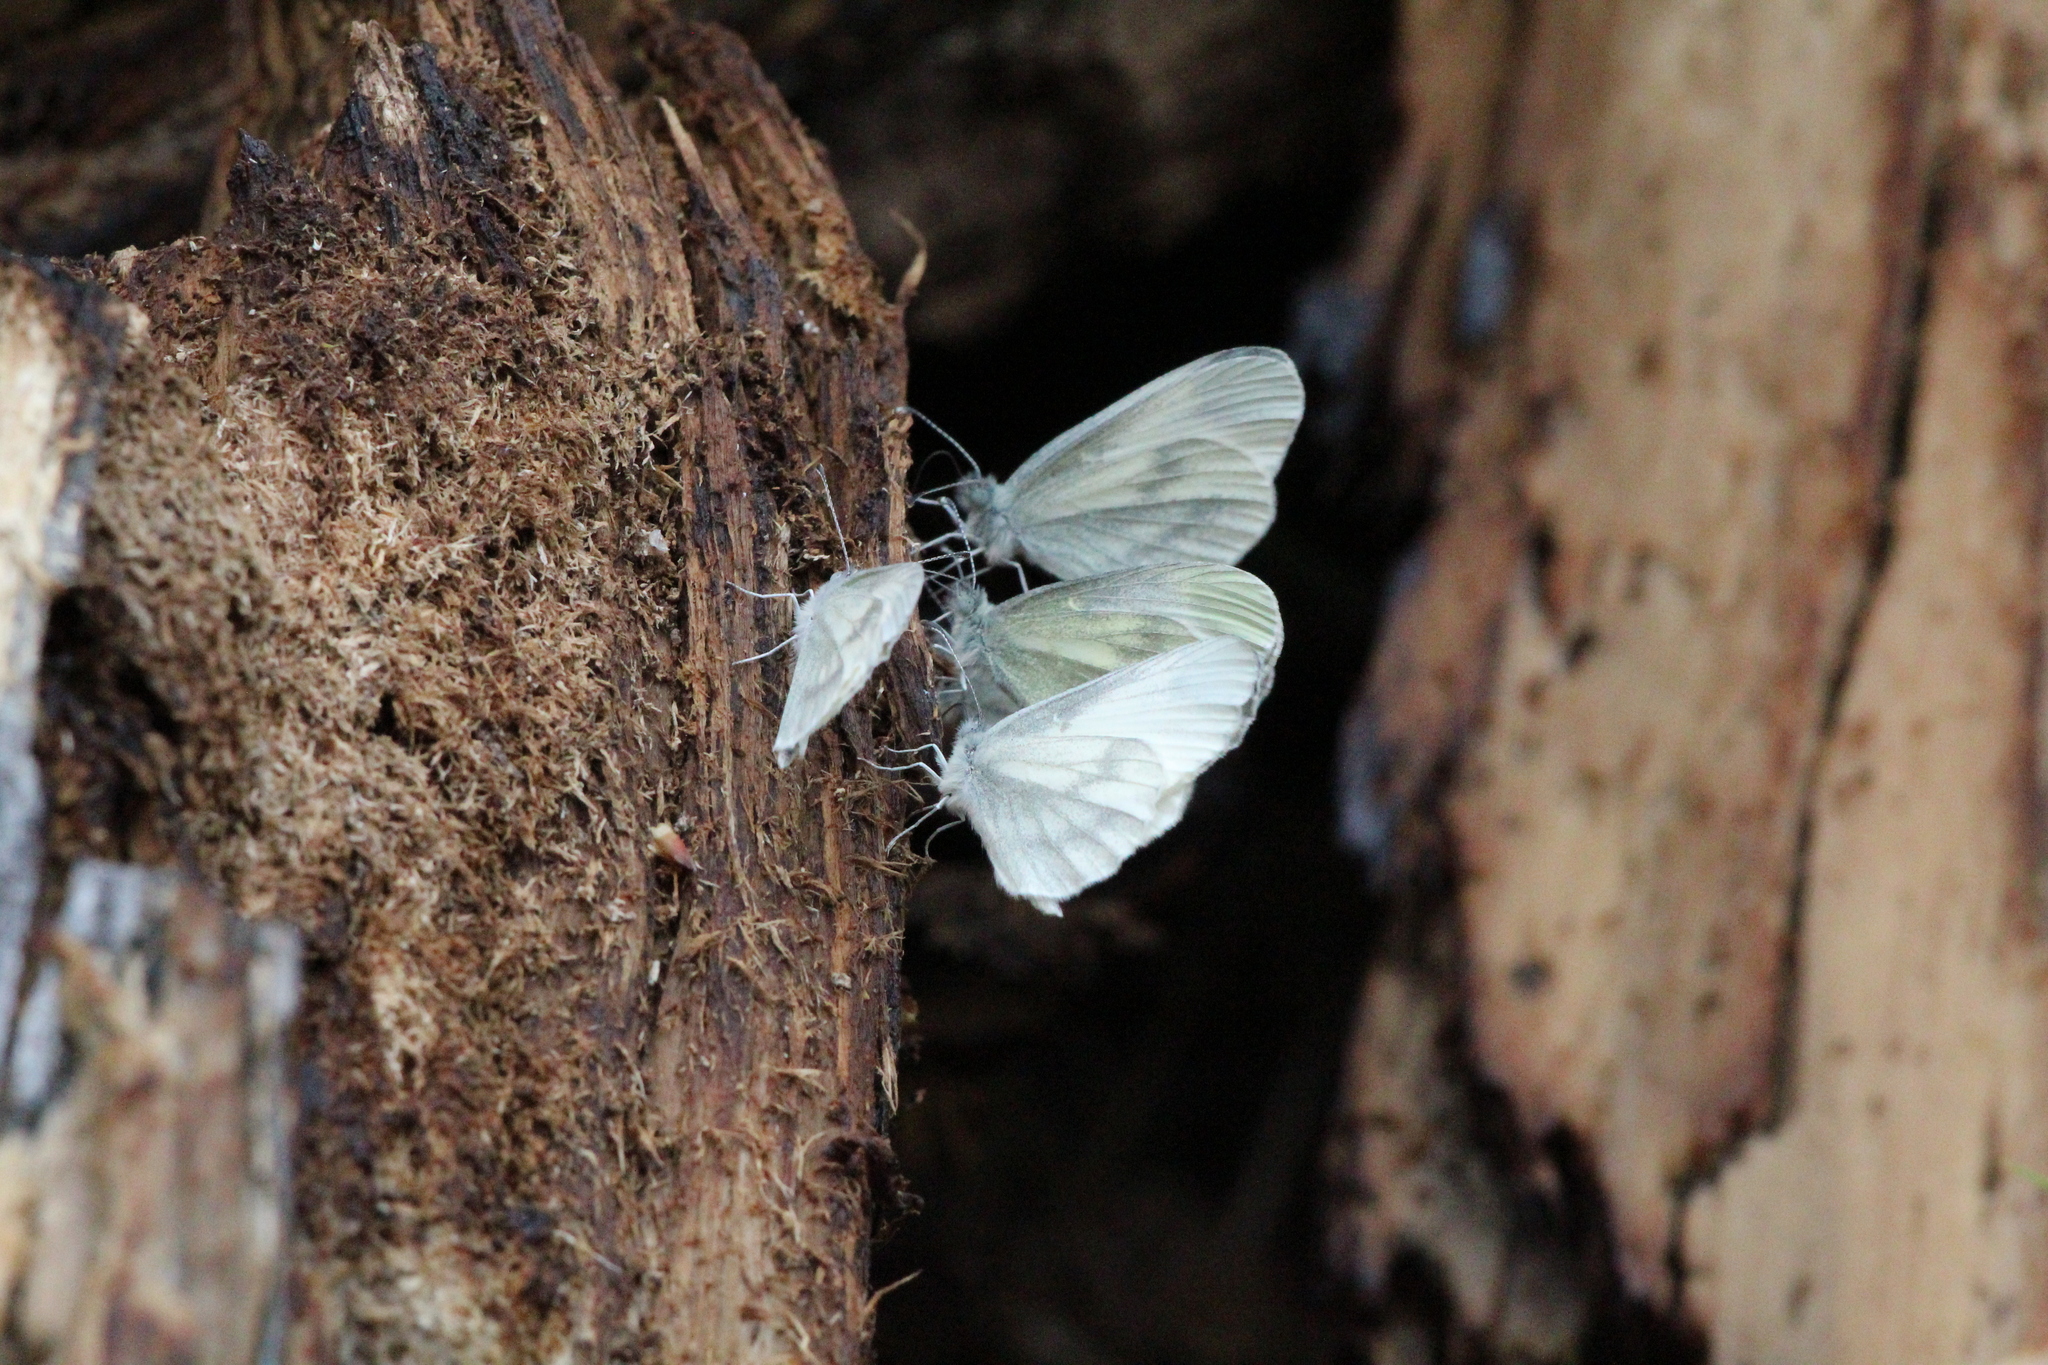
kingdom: Animalia
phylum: Arthropoda
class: Insecta
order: Lepidoptera
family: Pieridae
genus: Leptidea
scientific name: Leptidea sinapis
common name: Wood white
